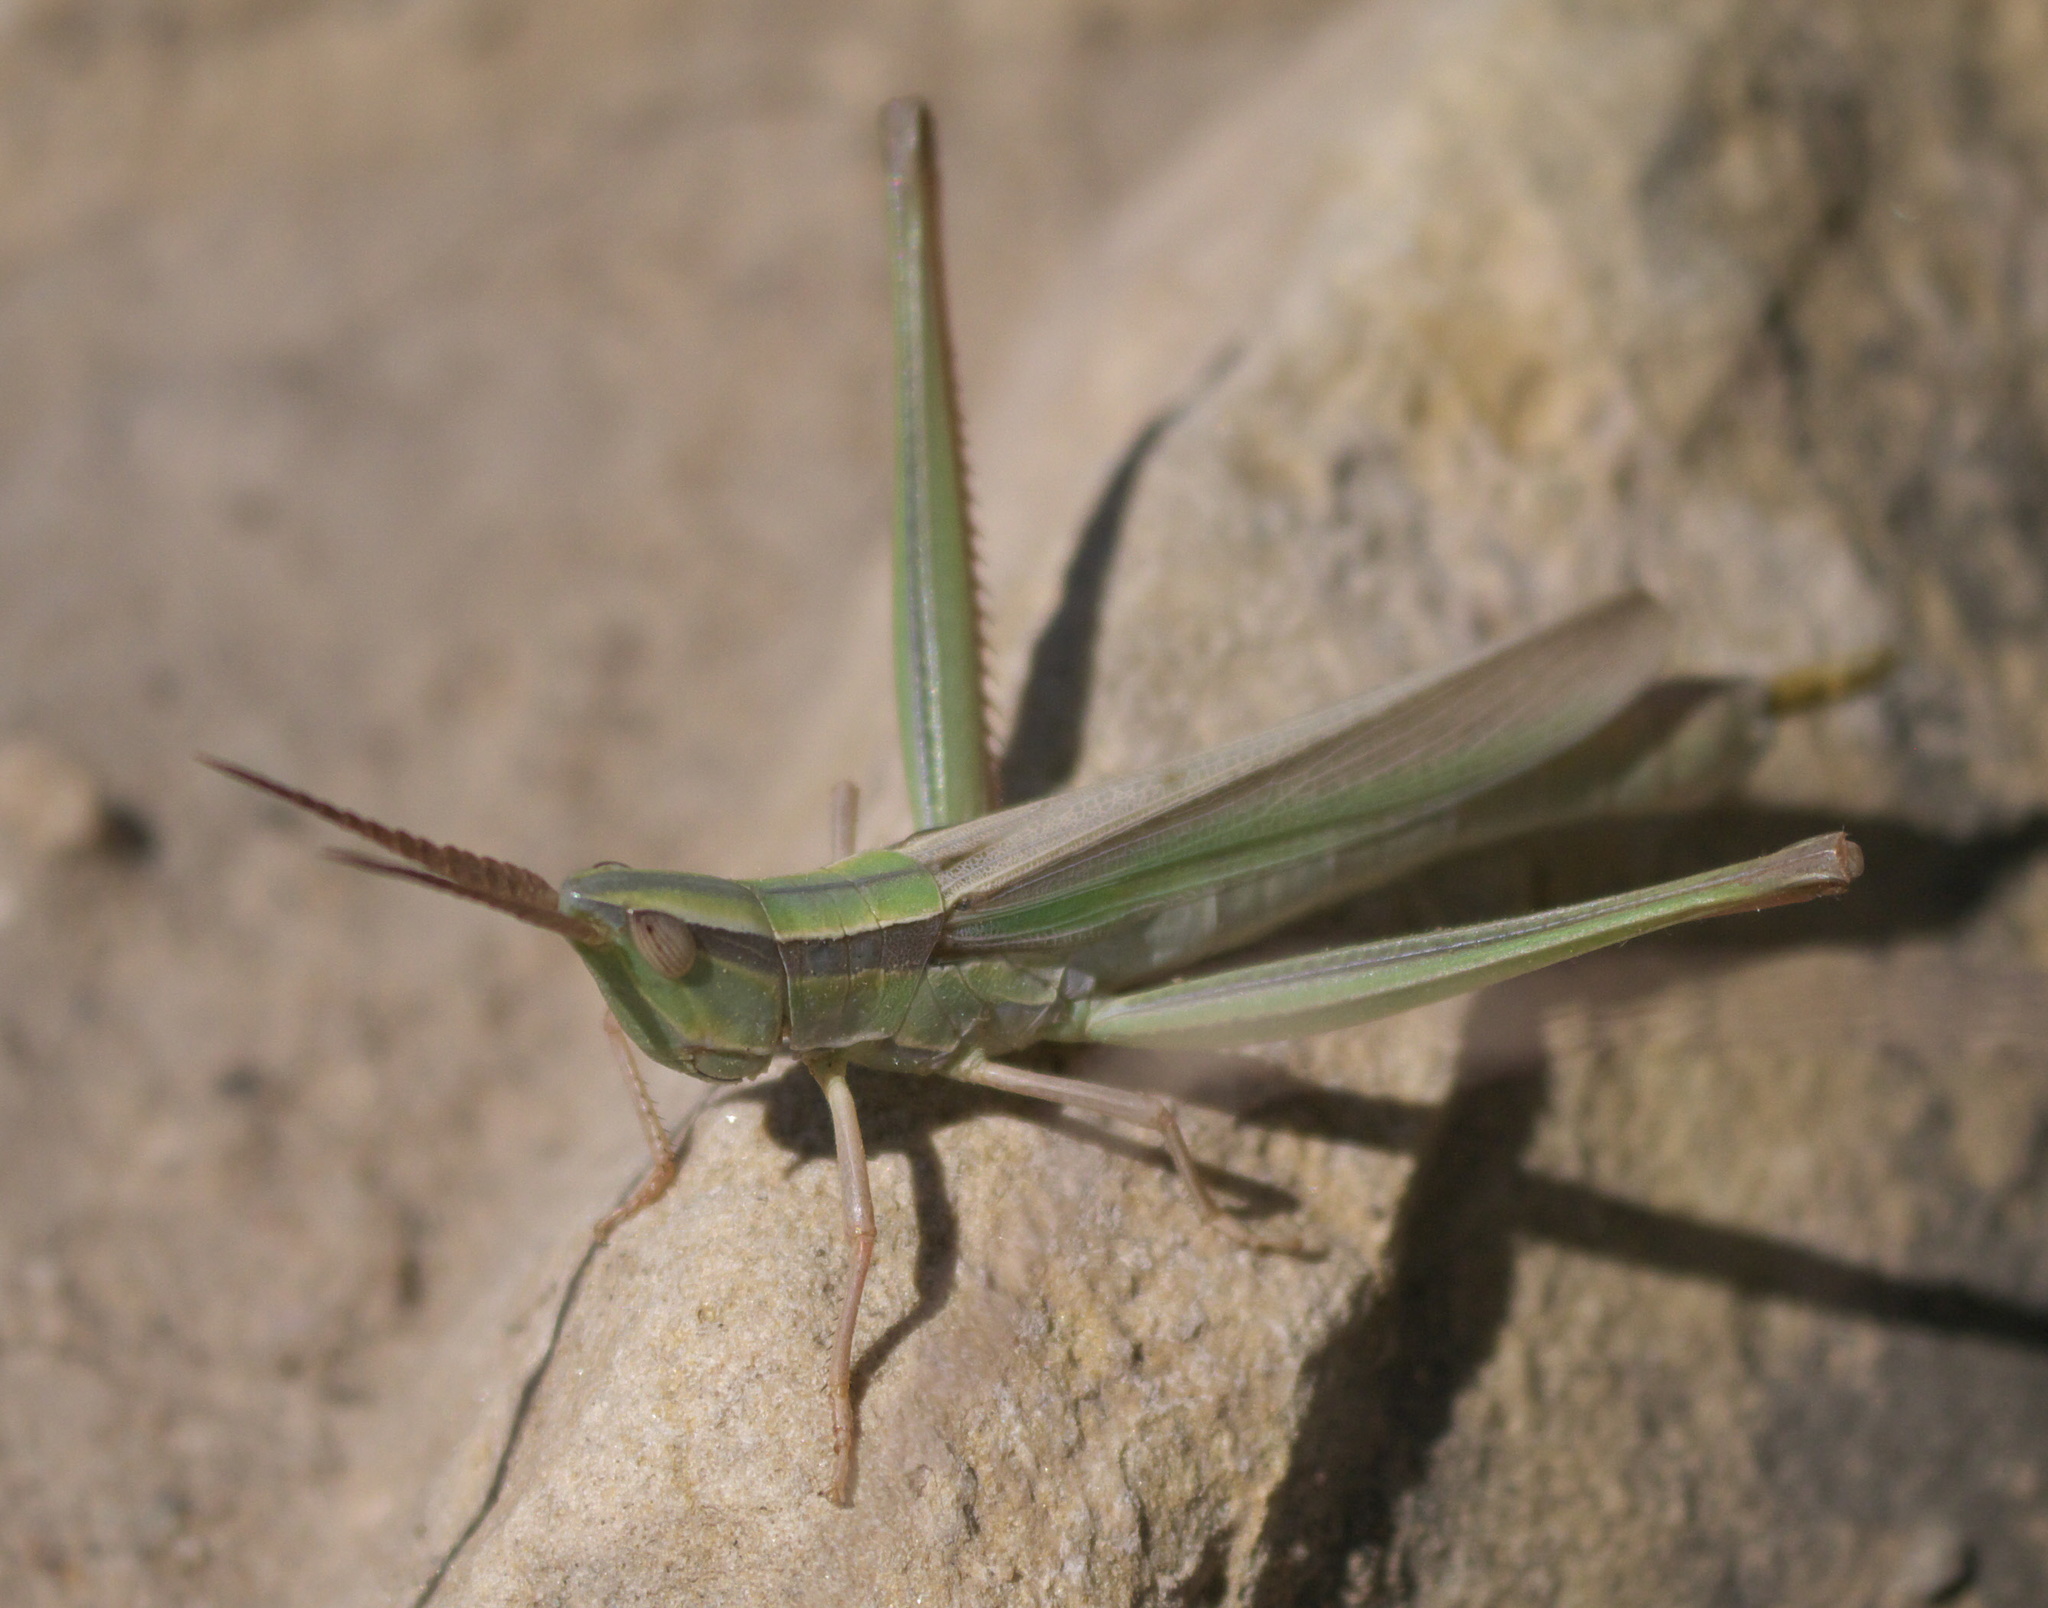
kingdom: Animalia
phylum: Arthropoda
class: Insecta
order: Orthoptera
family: Acrididae
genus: Mermiria
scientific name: Mermiria picta
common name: Lively mermiria grasshopper
